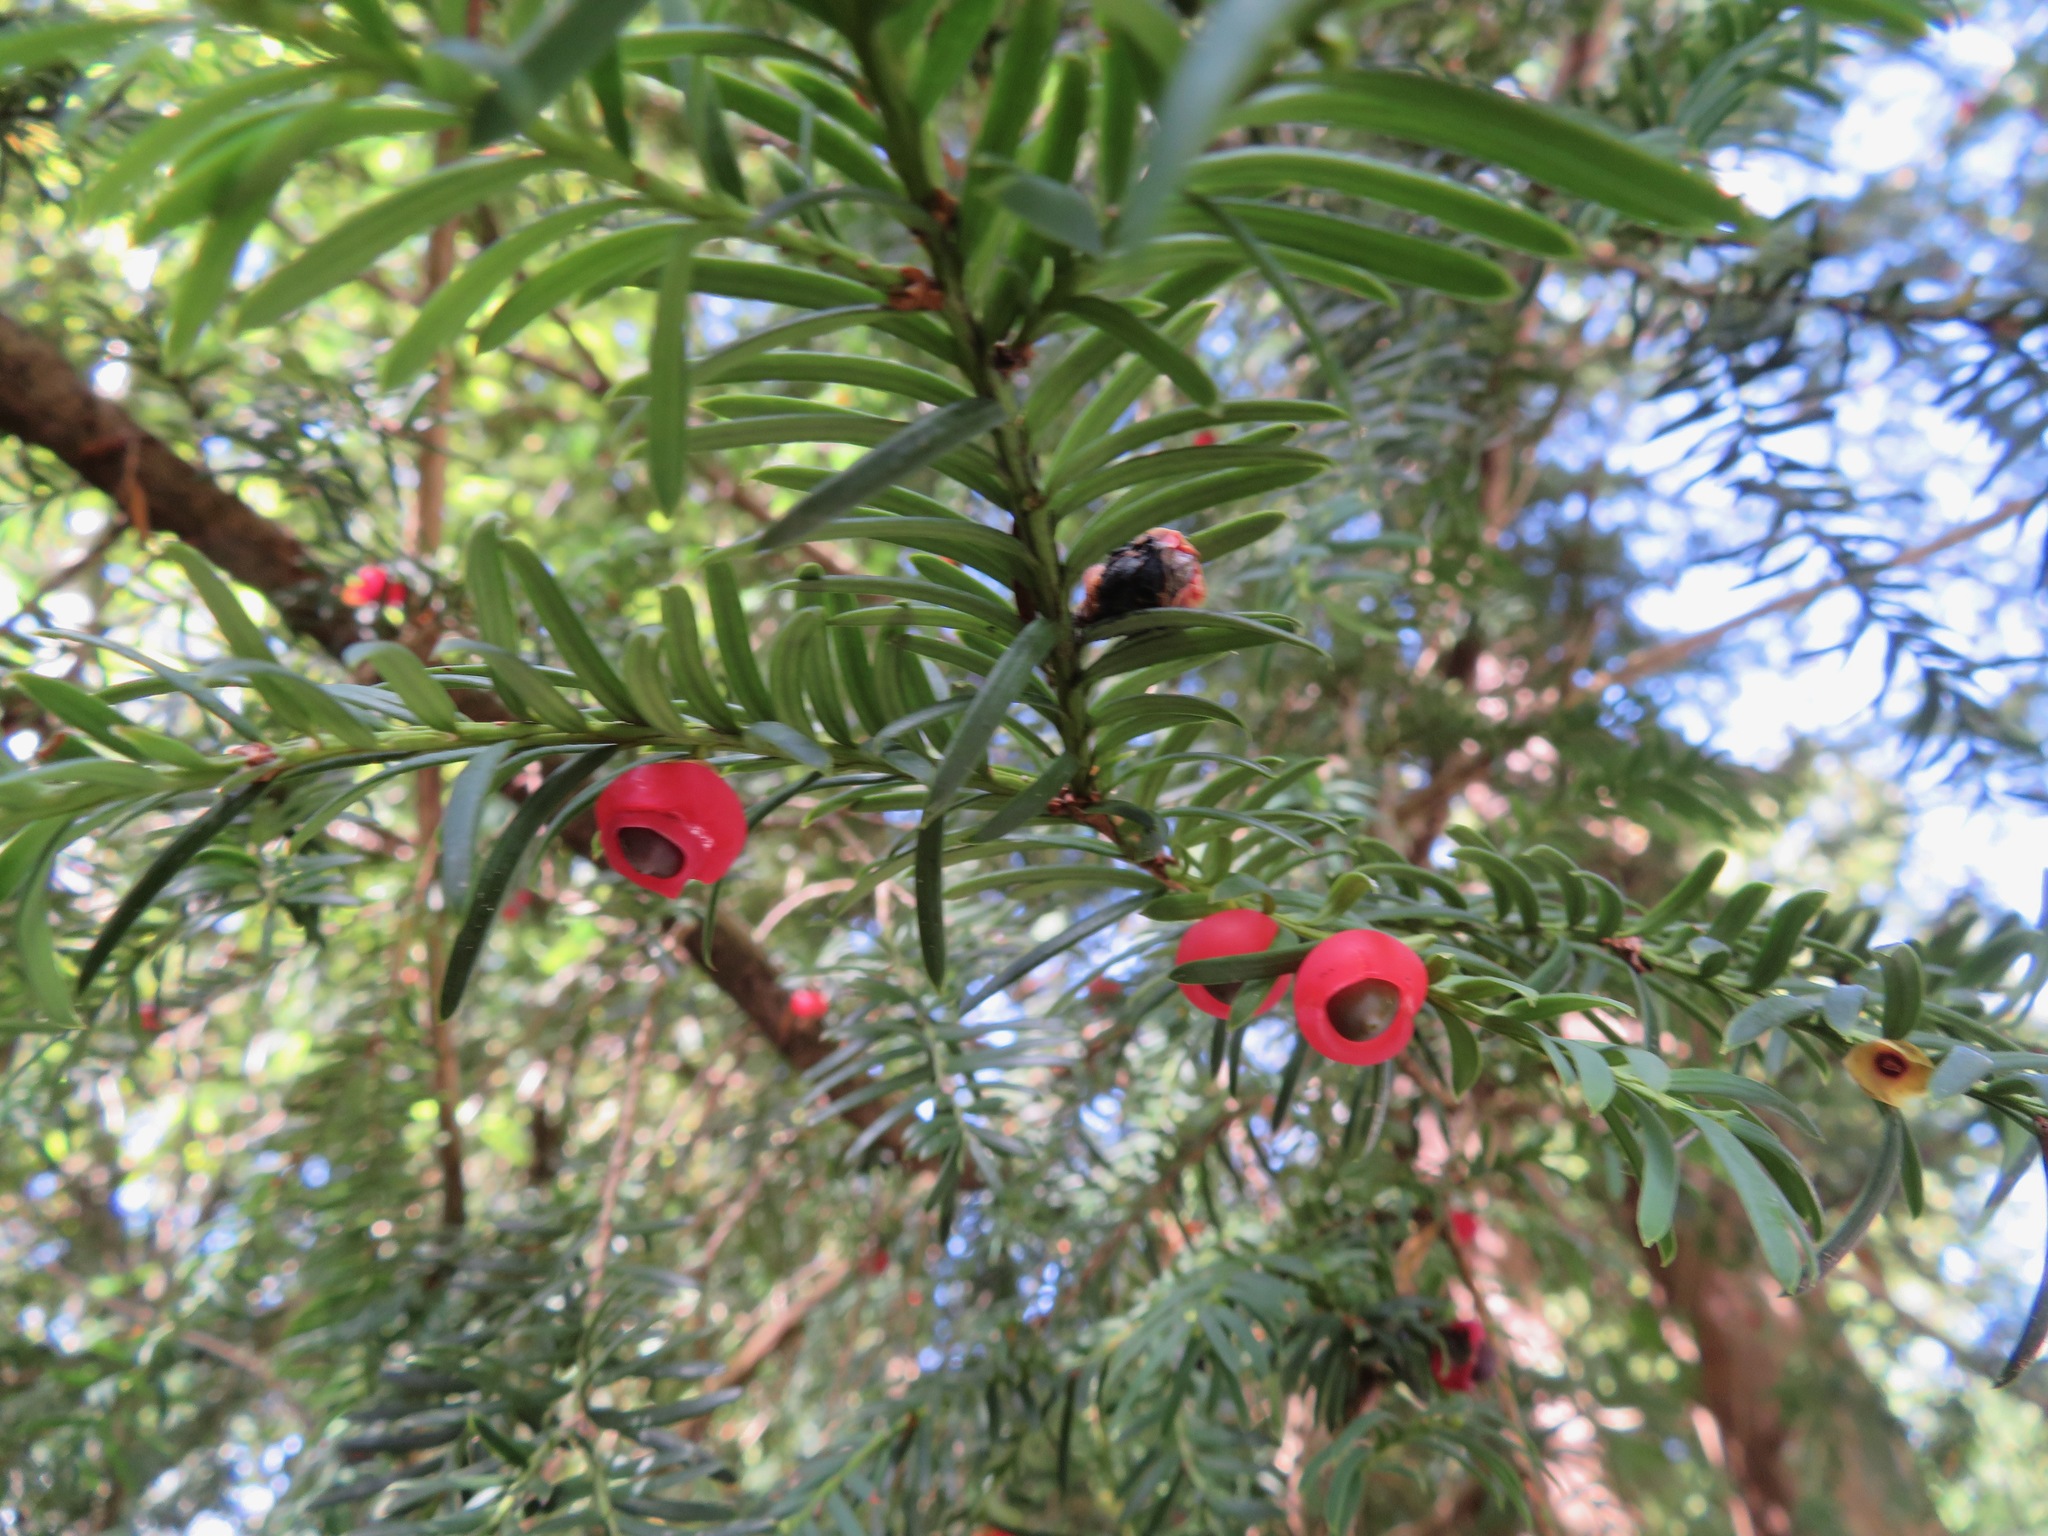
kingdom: Plantae
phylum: Tracheophyta
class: Pinopsida
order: Pinales
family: Taxaceae
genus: Taxus
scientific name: Taxus baccata
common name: Yew
